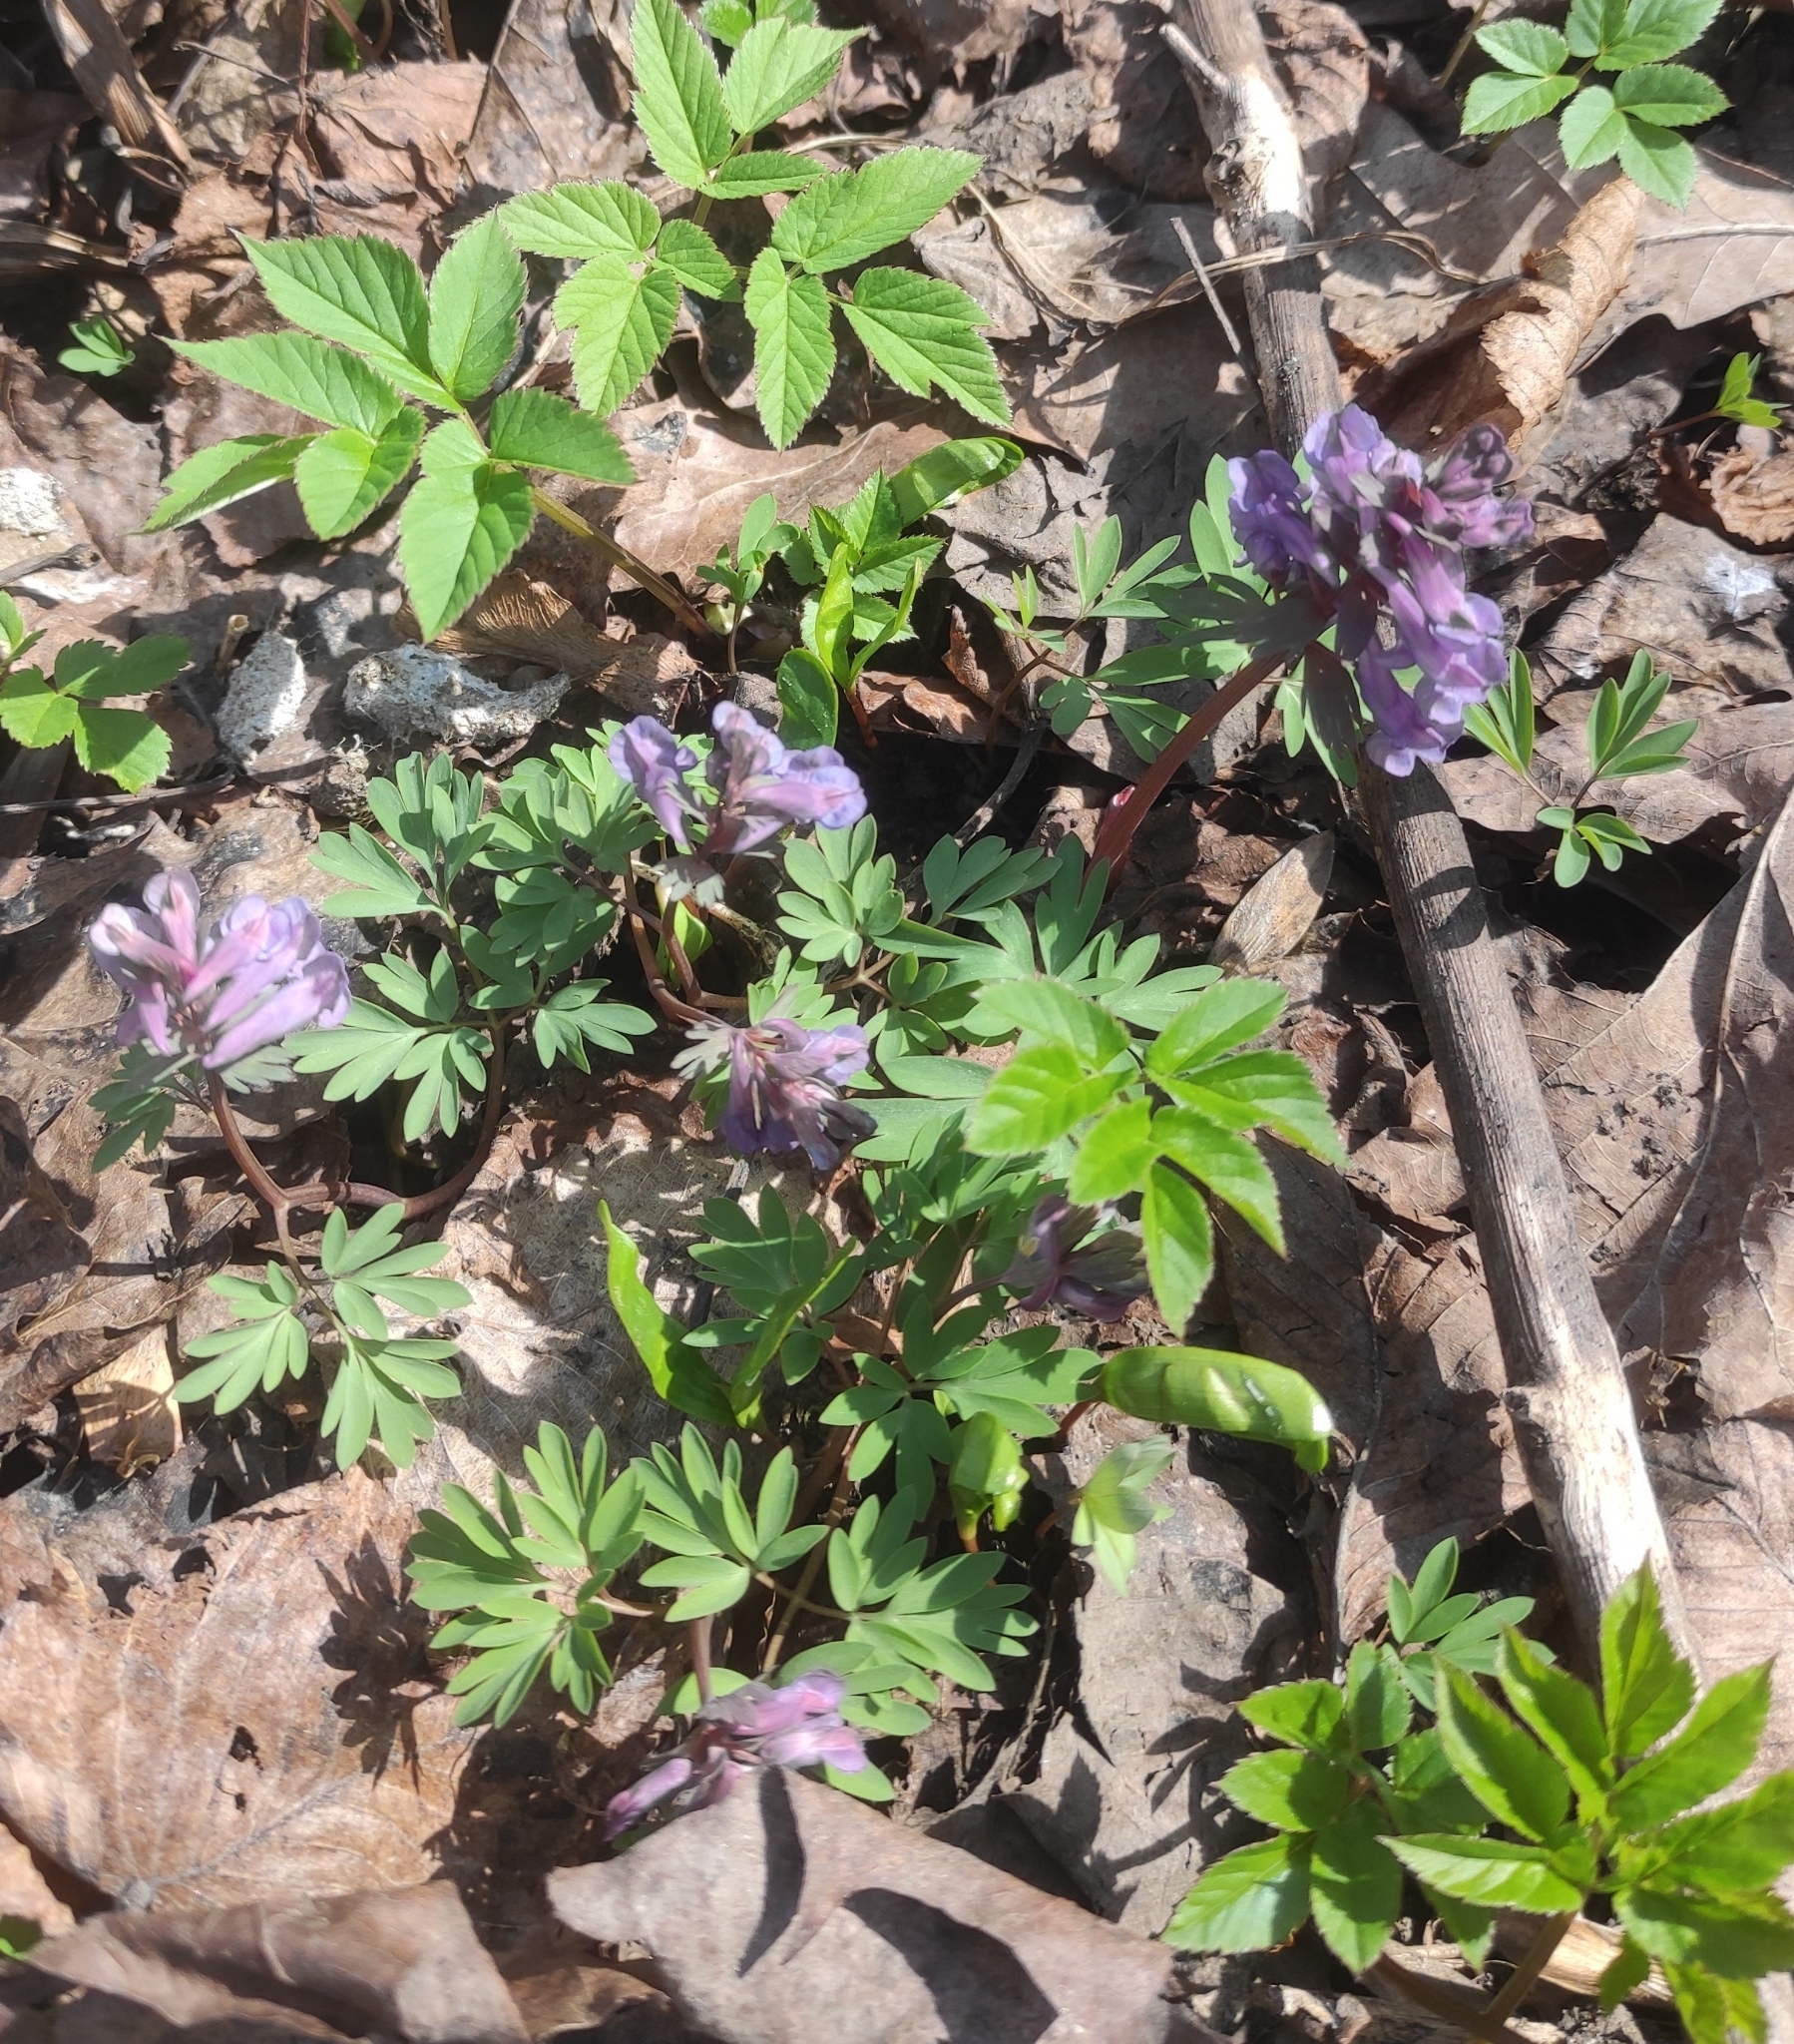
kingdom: Plantae
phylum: Tracheophyta
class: Magnoliopsida
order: Ranunculales
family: Papaveraceae
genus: Corydalis
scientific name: Corydalis solida
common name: Bird-in-a-bush
